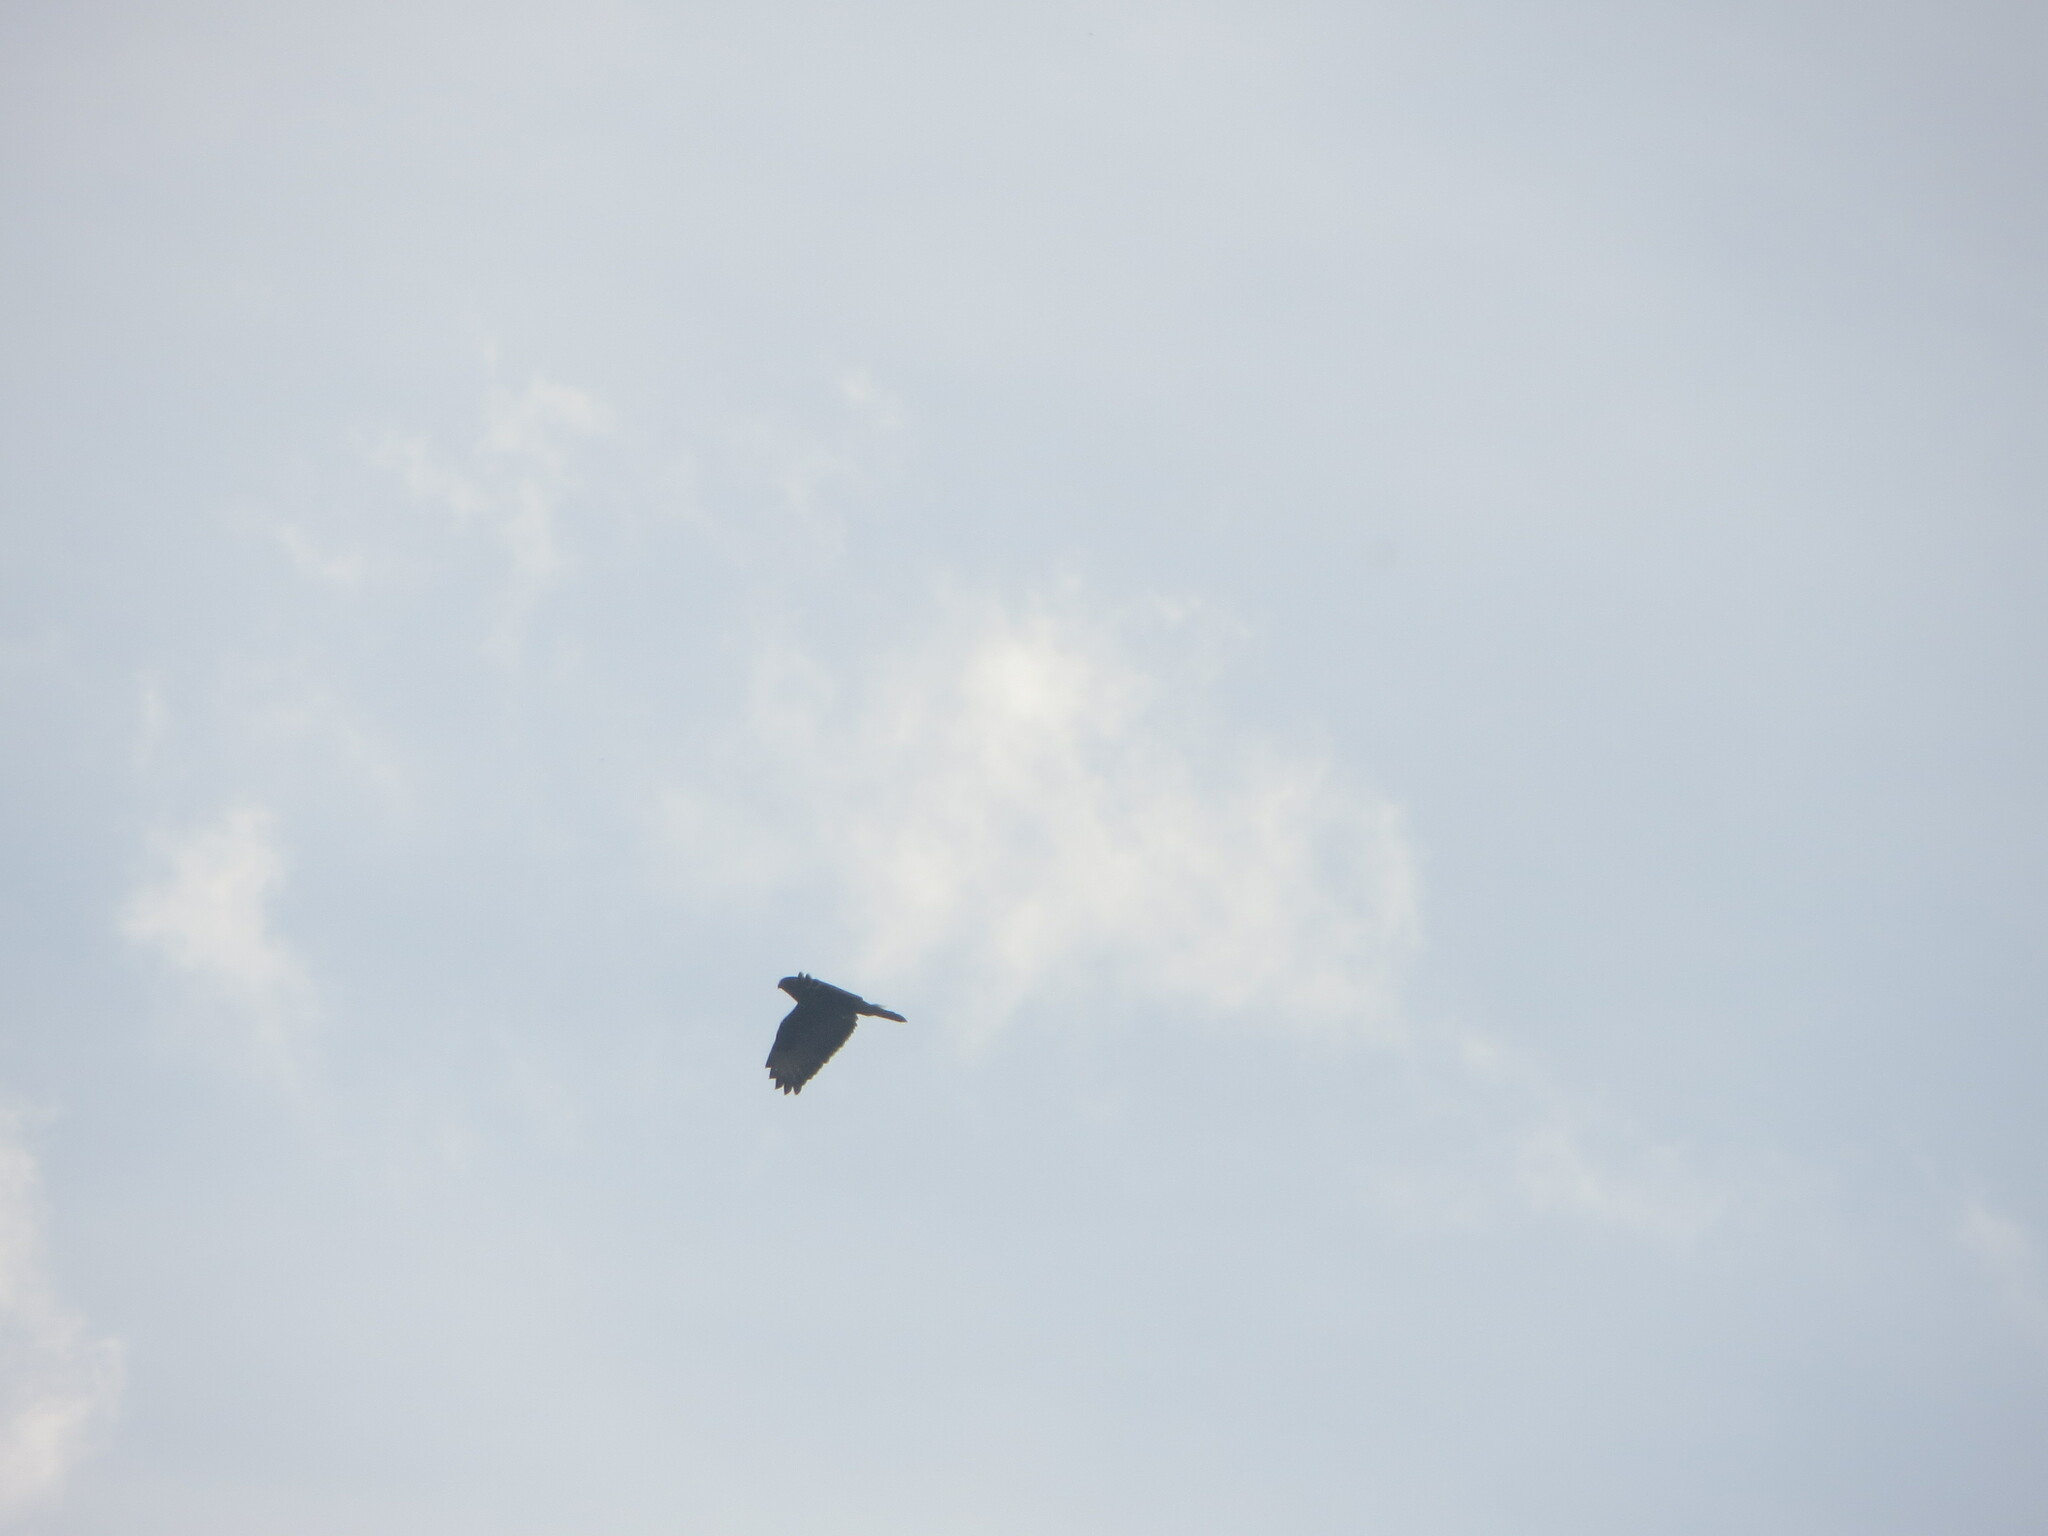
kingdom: Animalia
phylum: Chordata
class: Aves
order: Accipitriformes
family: Accipitridae
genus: Buteo
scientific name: Buteo buteo
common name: Common buzzard
